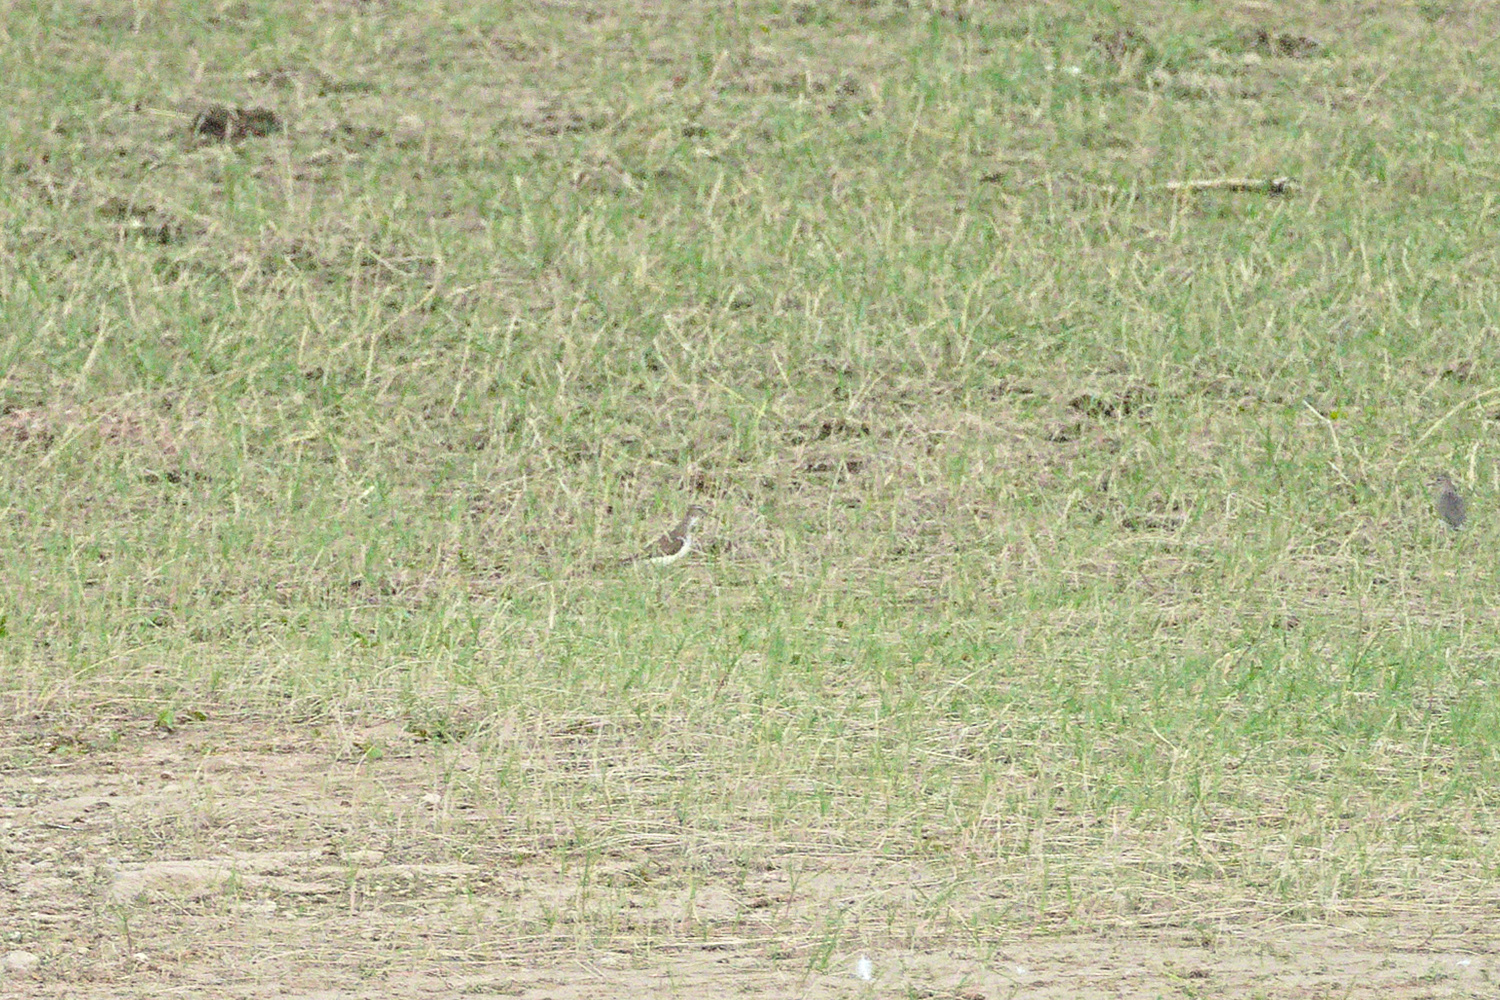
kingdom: Animalia
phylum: Chordata
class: Aves
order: Charadriiformes
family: Scolopacidae
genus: Actitis
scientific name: Actitis hypoleucos
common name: Common sandpiper
